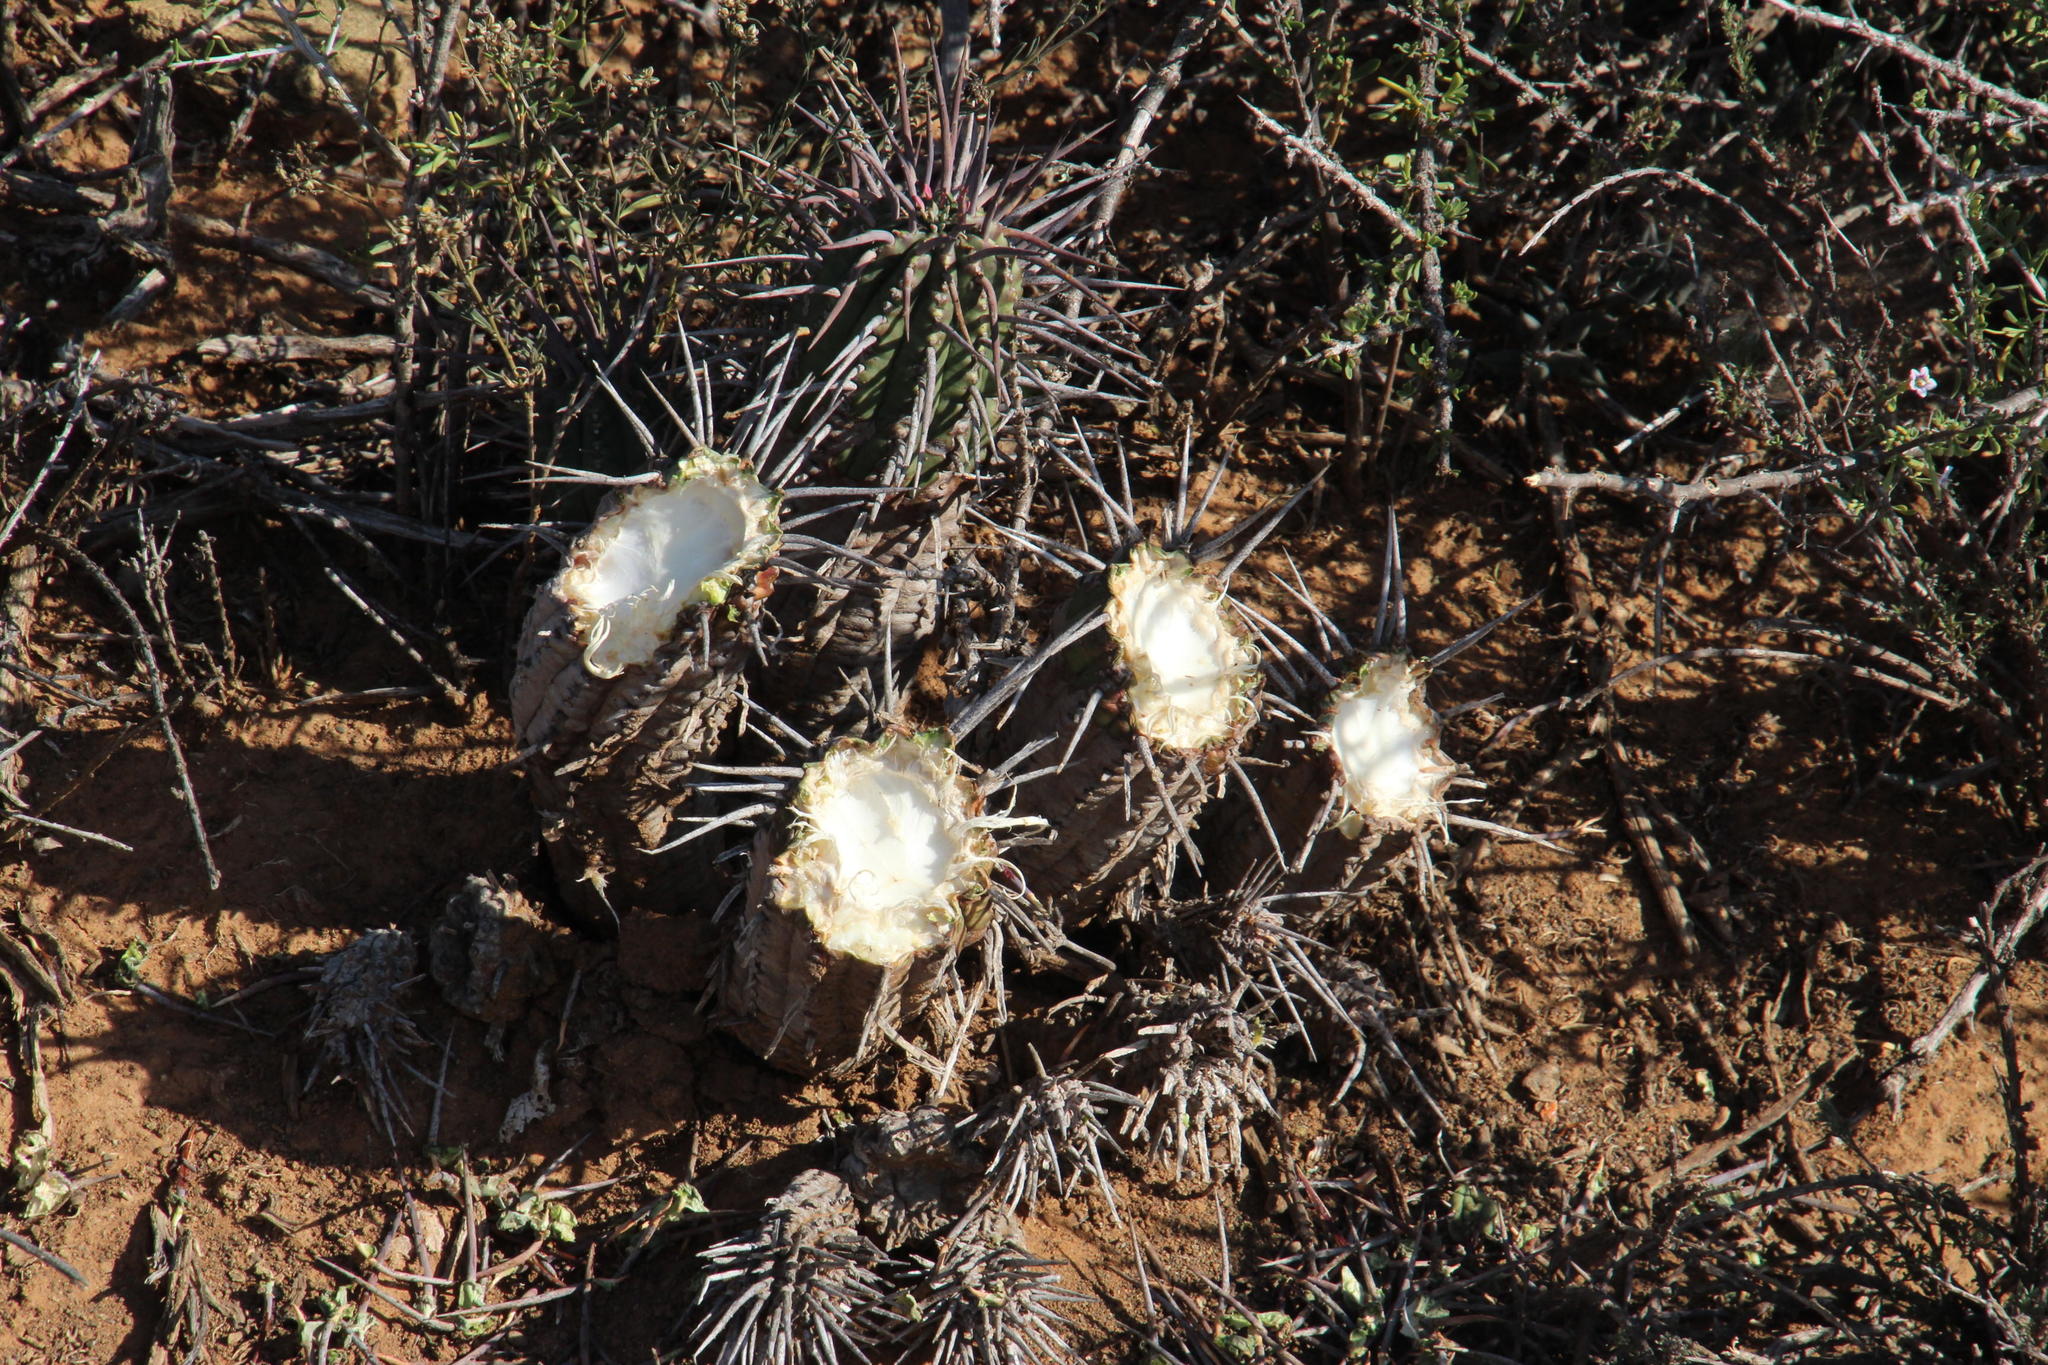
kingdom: Plantae
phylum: Tracheophyta
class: Magnoliopsida
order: Malpighiales
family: Euphorbiaceae
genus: Euphorbia
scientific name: Euphorbia ferox
